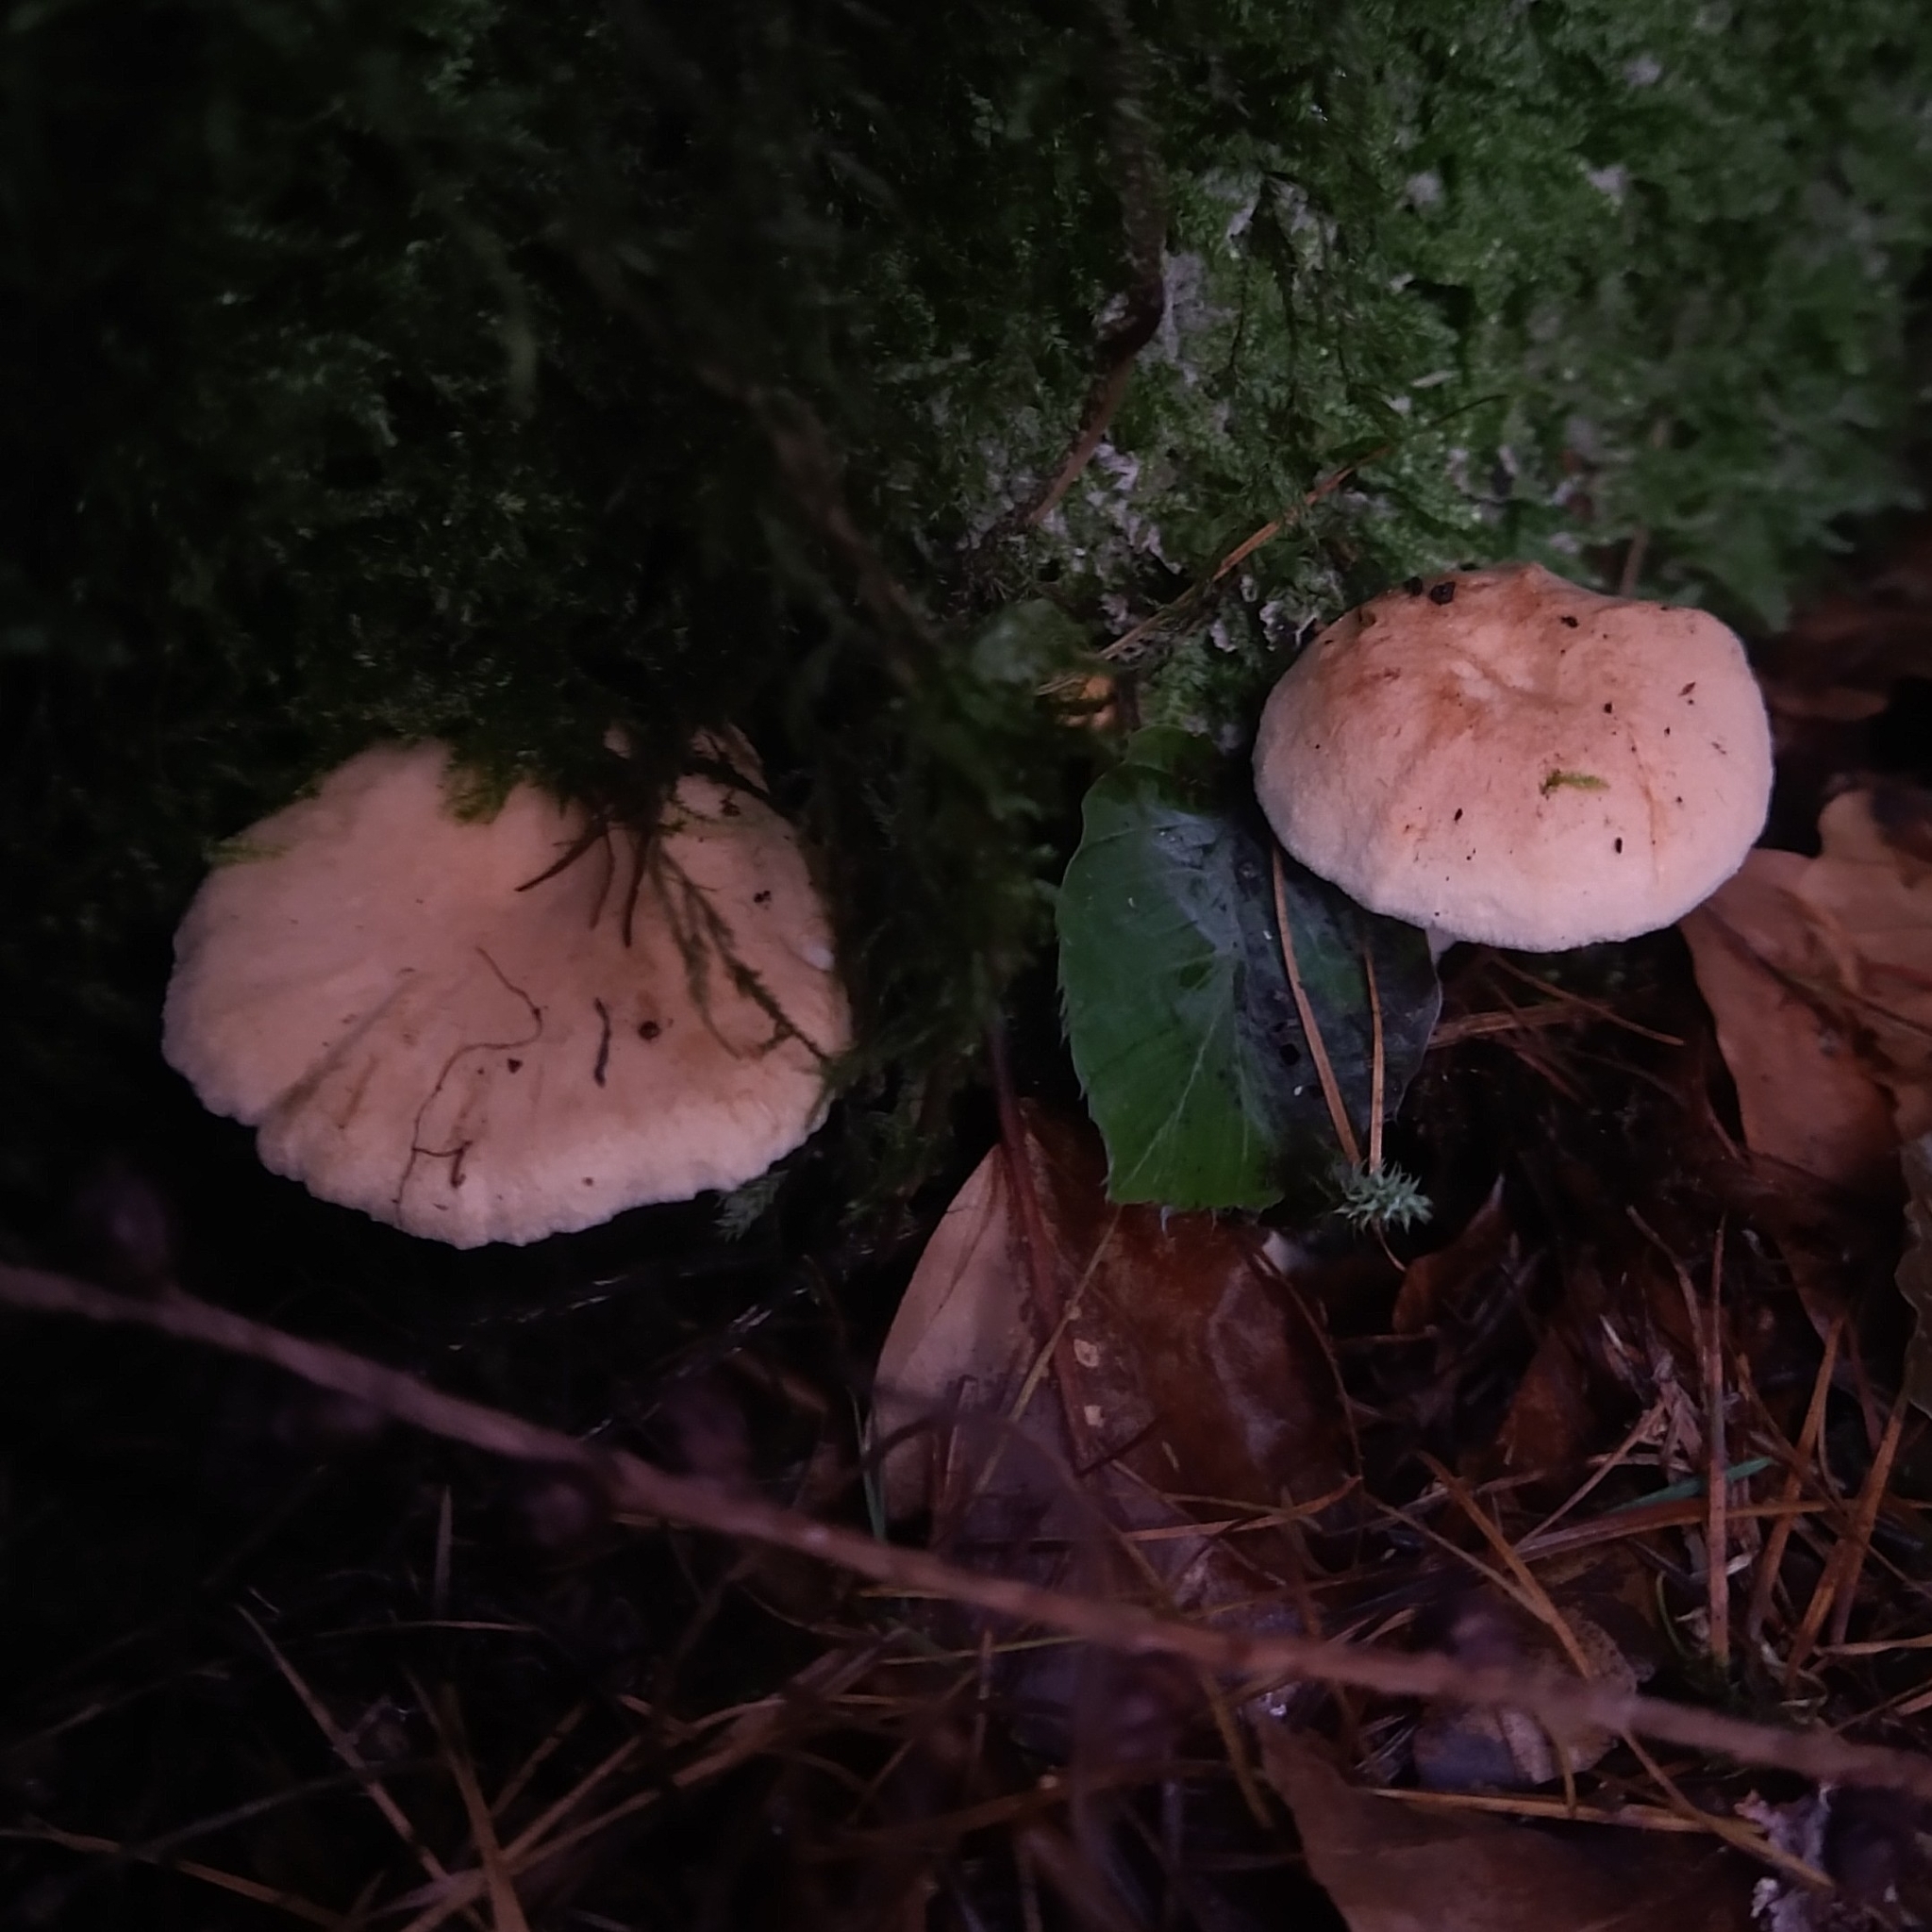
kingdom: Fungi
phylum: Basidiomycota
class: Agaricomycetes
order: Cantharellales
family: Hydnaceae
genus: Hydnum
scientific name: Hydnum repandum
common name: Wood hedgehog
